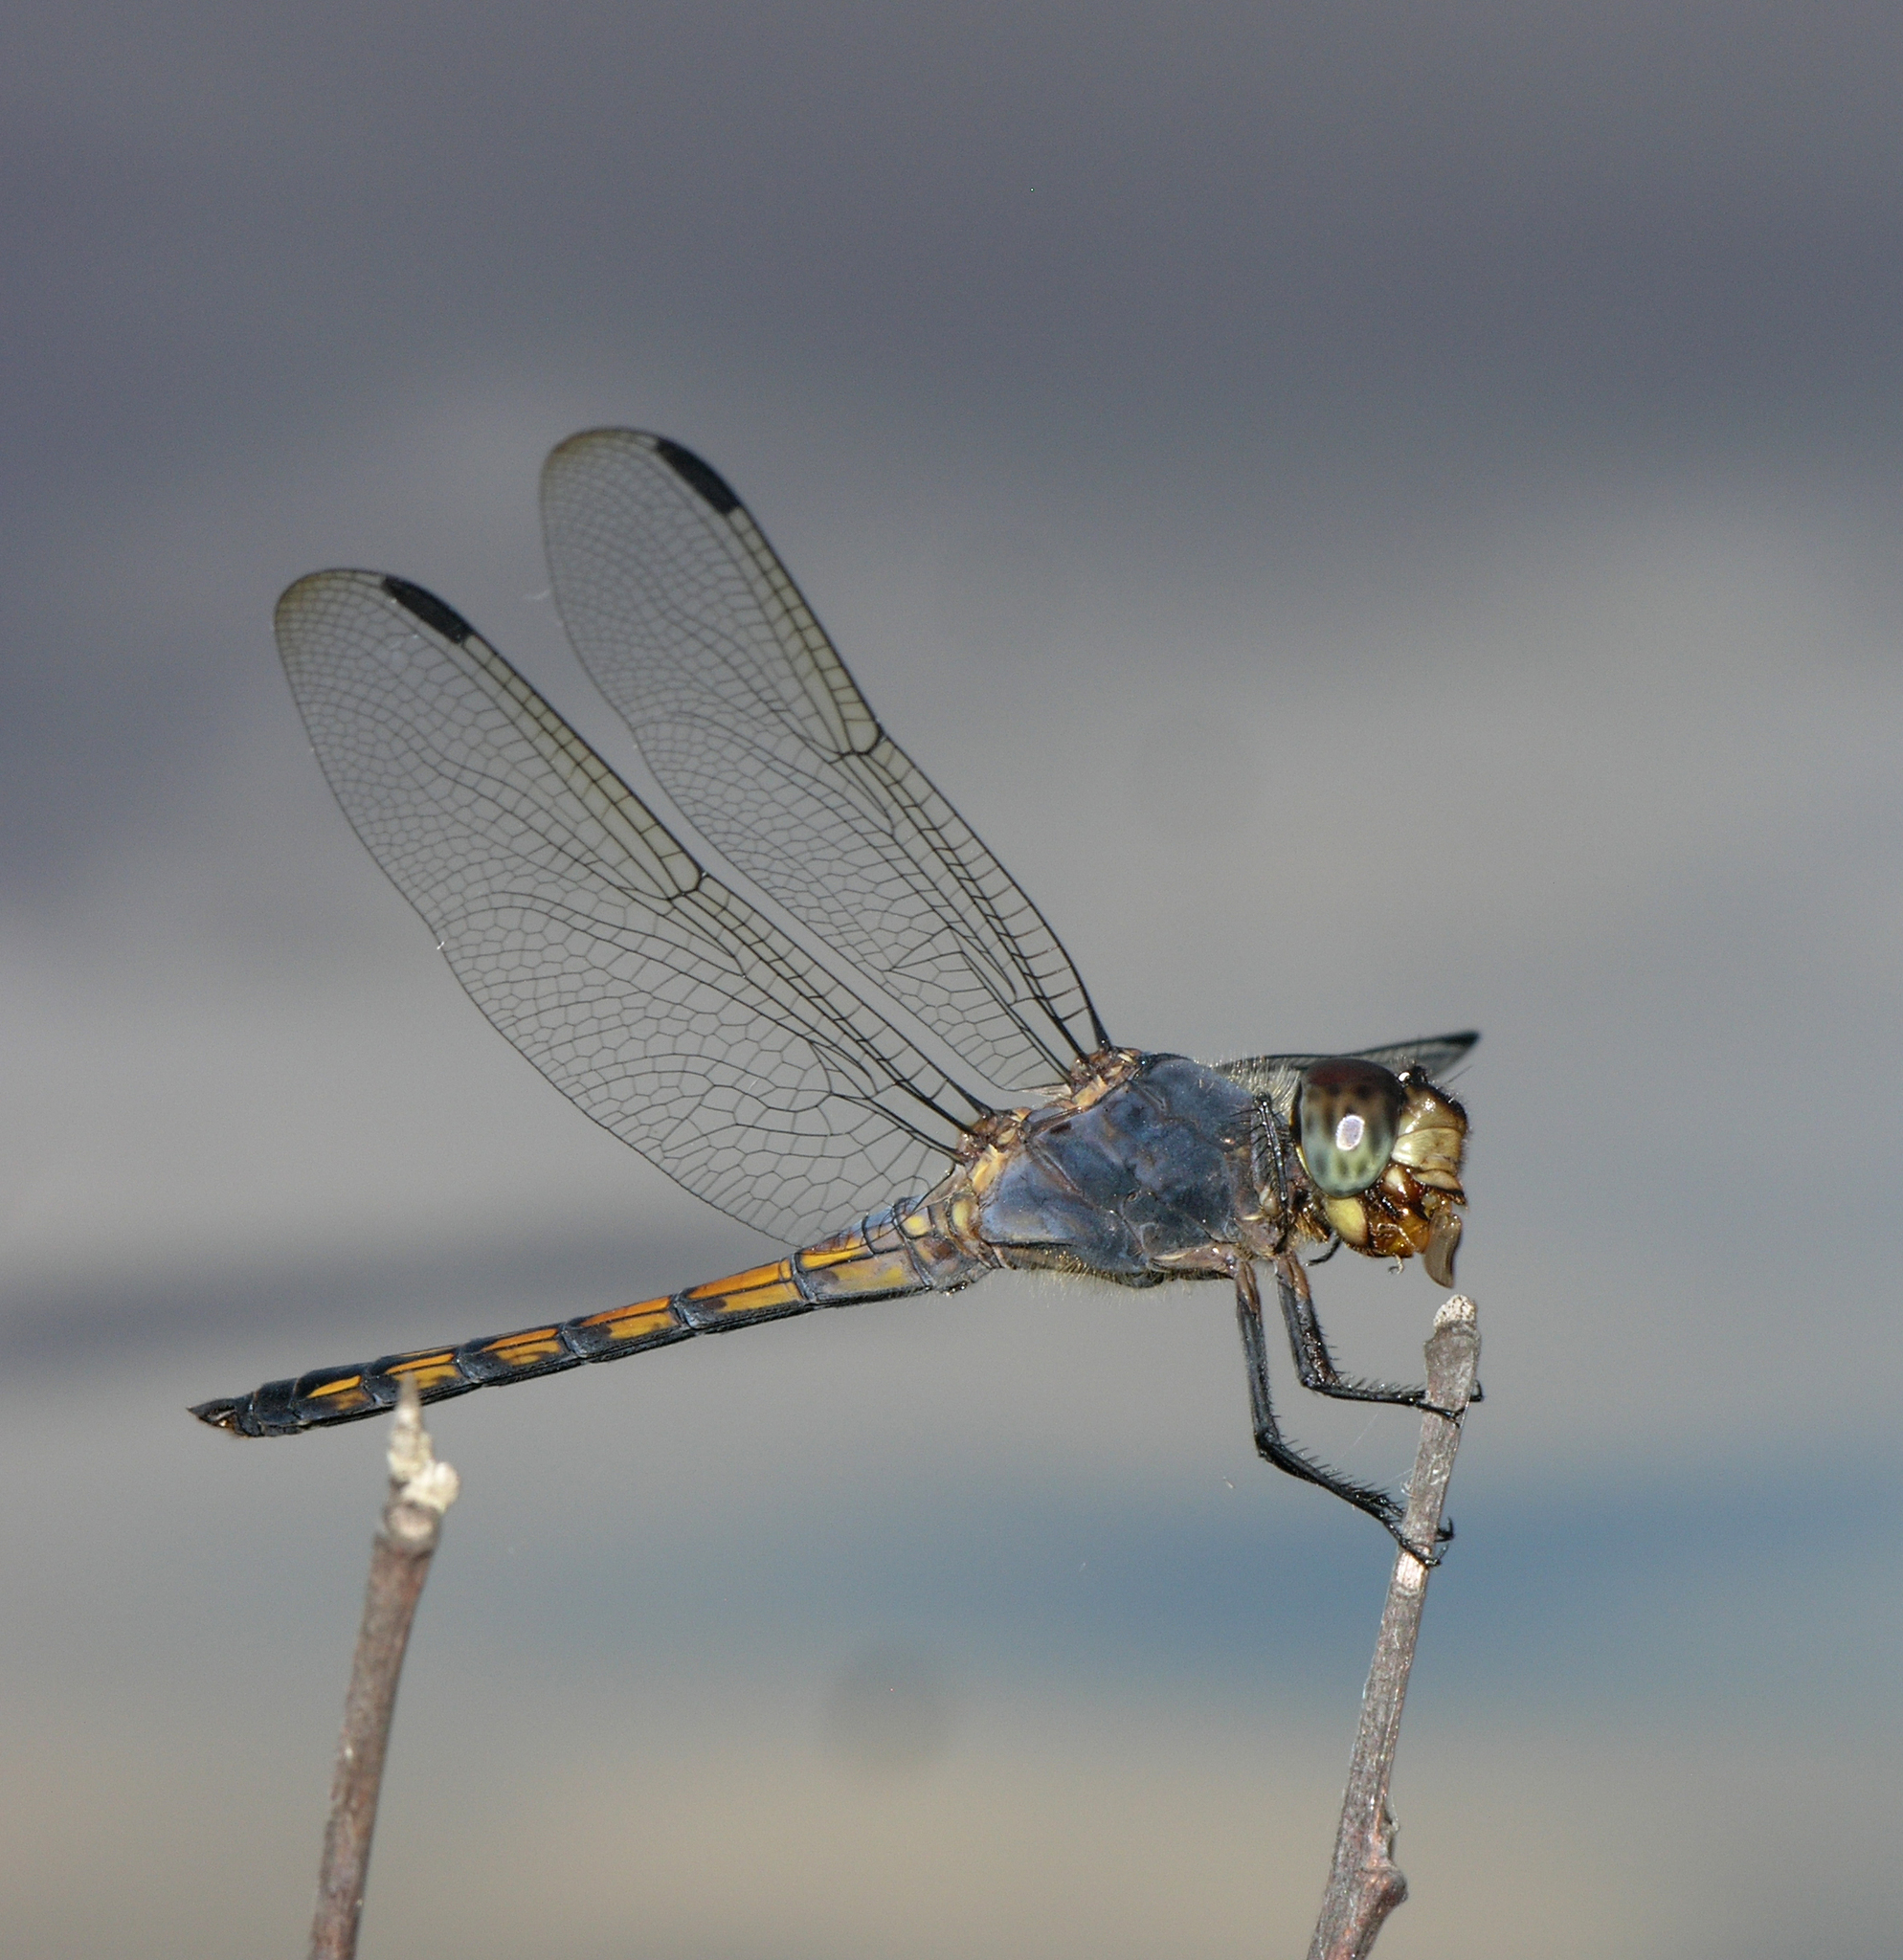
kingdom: Animalia
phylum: Arthropoda
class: Insecta
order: Odonata
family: Libellulidae
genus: Potamarcha
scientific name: Potamarcha congener
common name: Blue chaser
